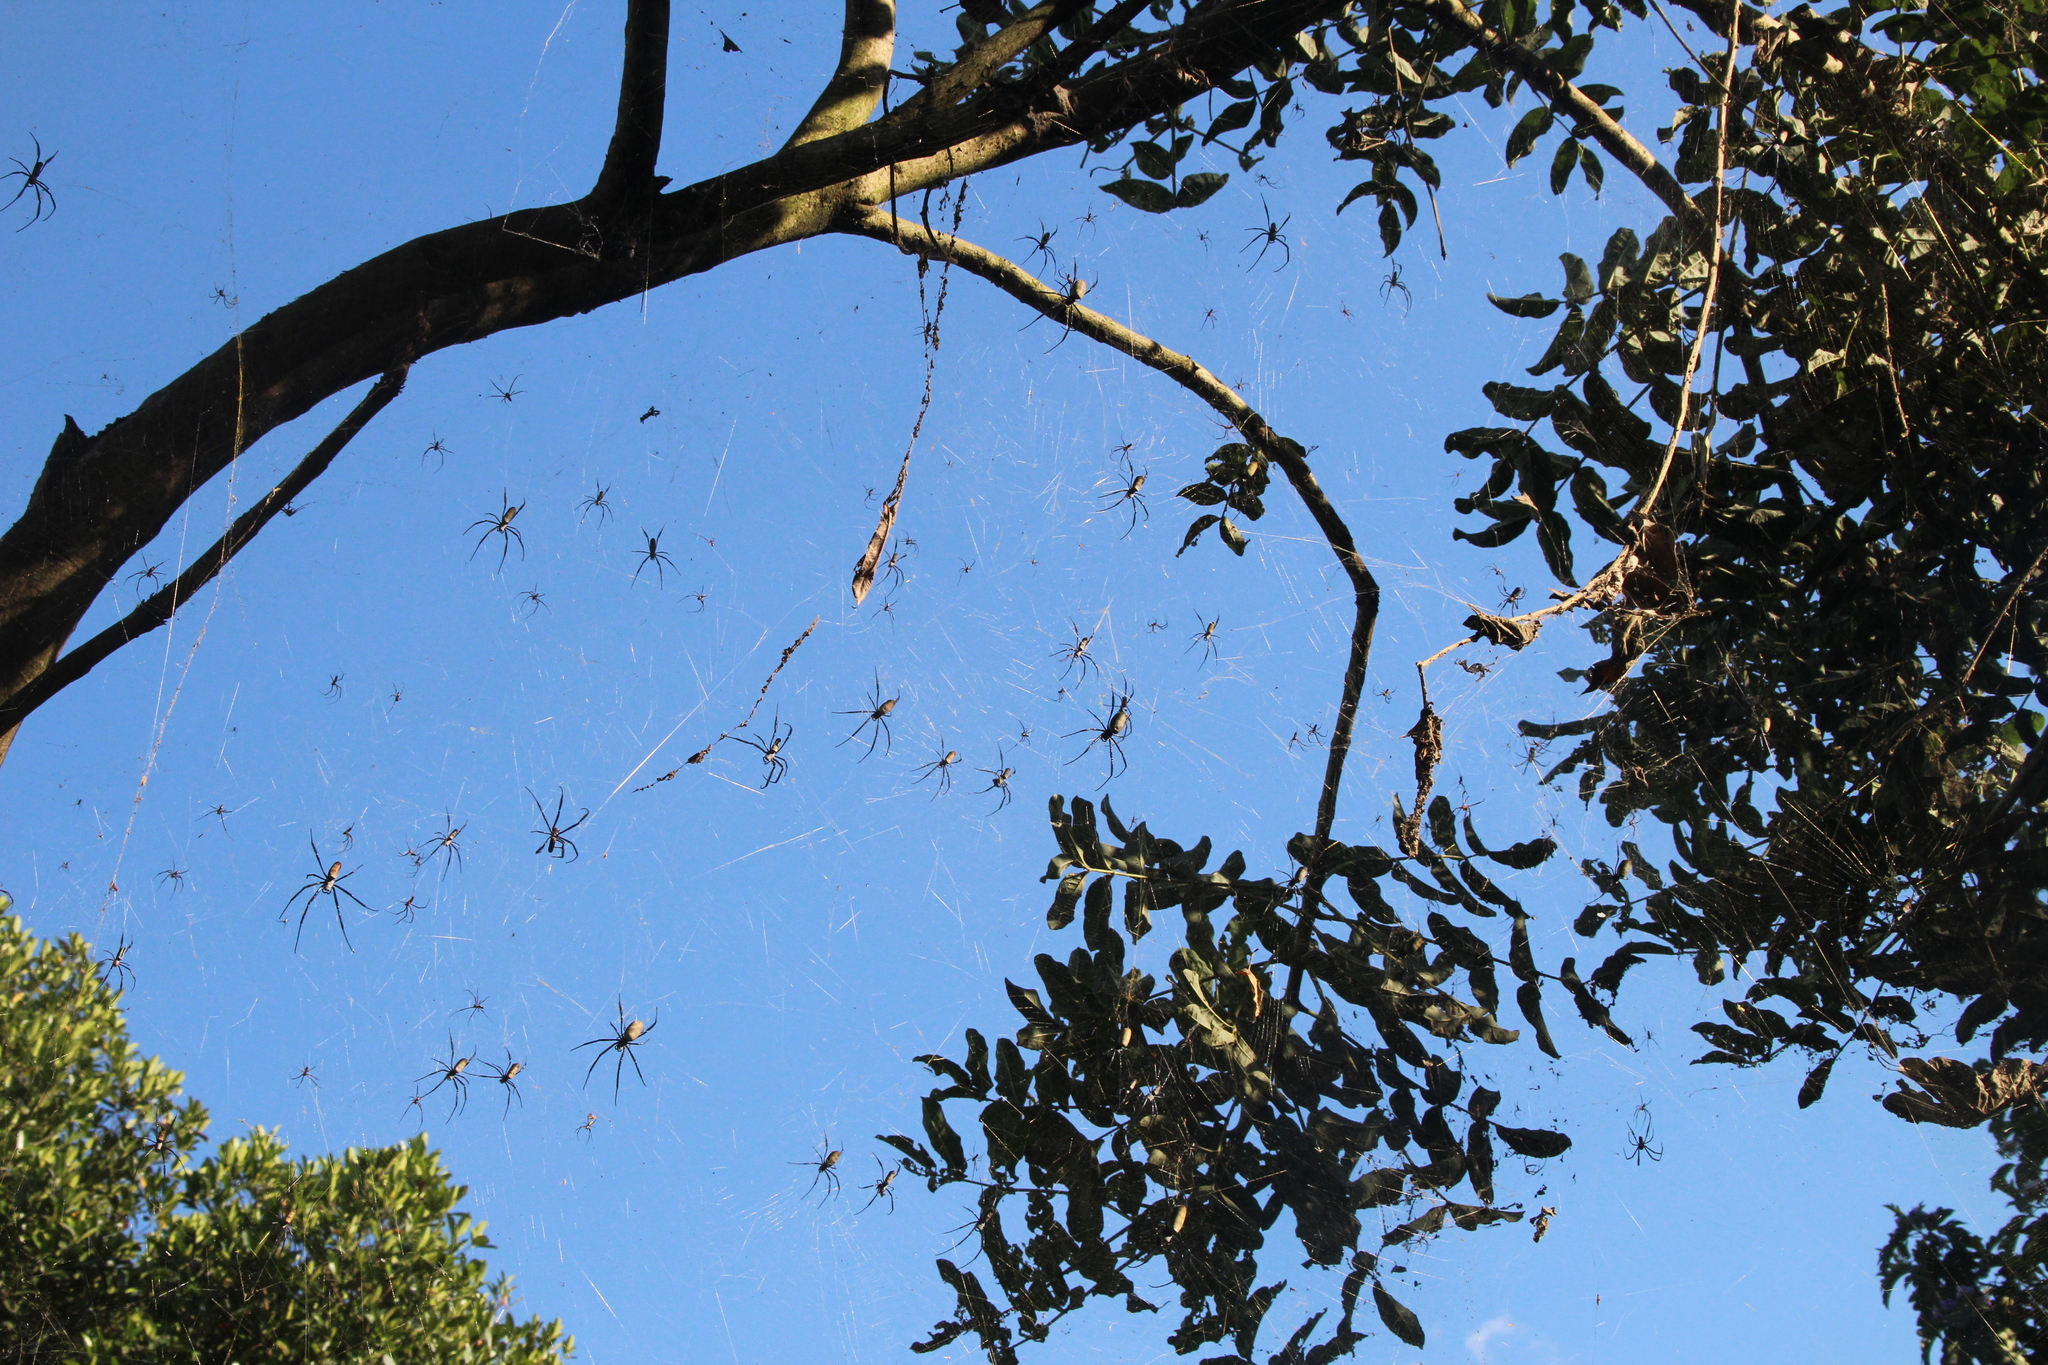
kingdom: Animalia
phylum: Arthropoda
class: Arachnida
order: Araneae
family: Araneidae
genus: Trichonephila
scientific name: Trichonephila fenestrata
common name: Hairy golden orb weaver
